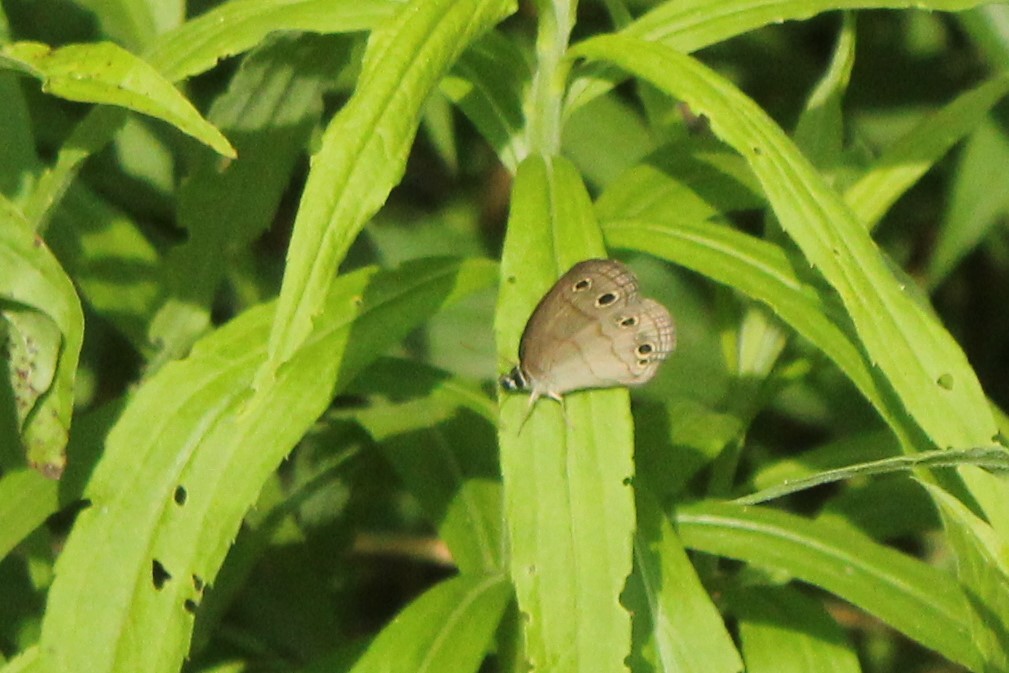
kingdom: Animalia
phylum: Arthropoda
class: Insecta
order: Lepidoptera
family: Nymphalidae
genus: Euptychia
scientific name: Euptychia cymela
